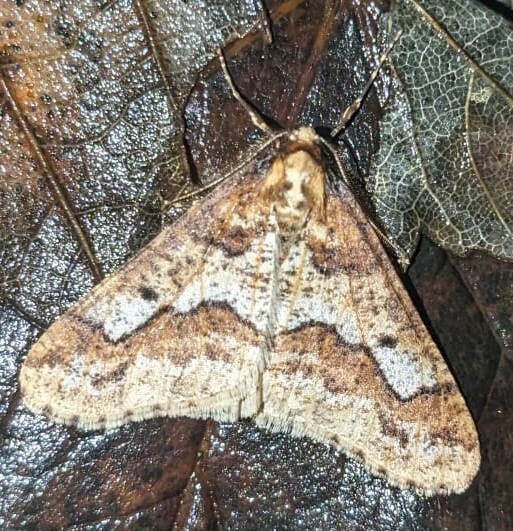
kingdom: Animalia
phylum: Arthropoda
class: Insecta
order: Lepidoptera
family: Geometridae
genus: Erannis
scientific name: Erannis defoliaria
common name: Mottled umber
